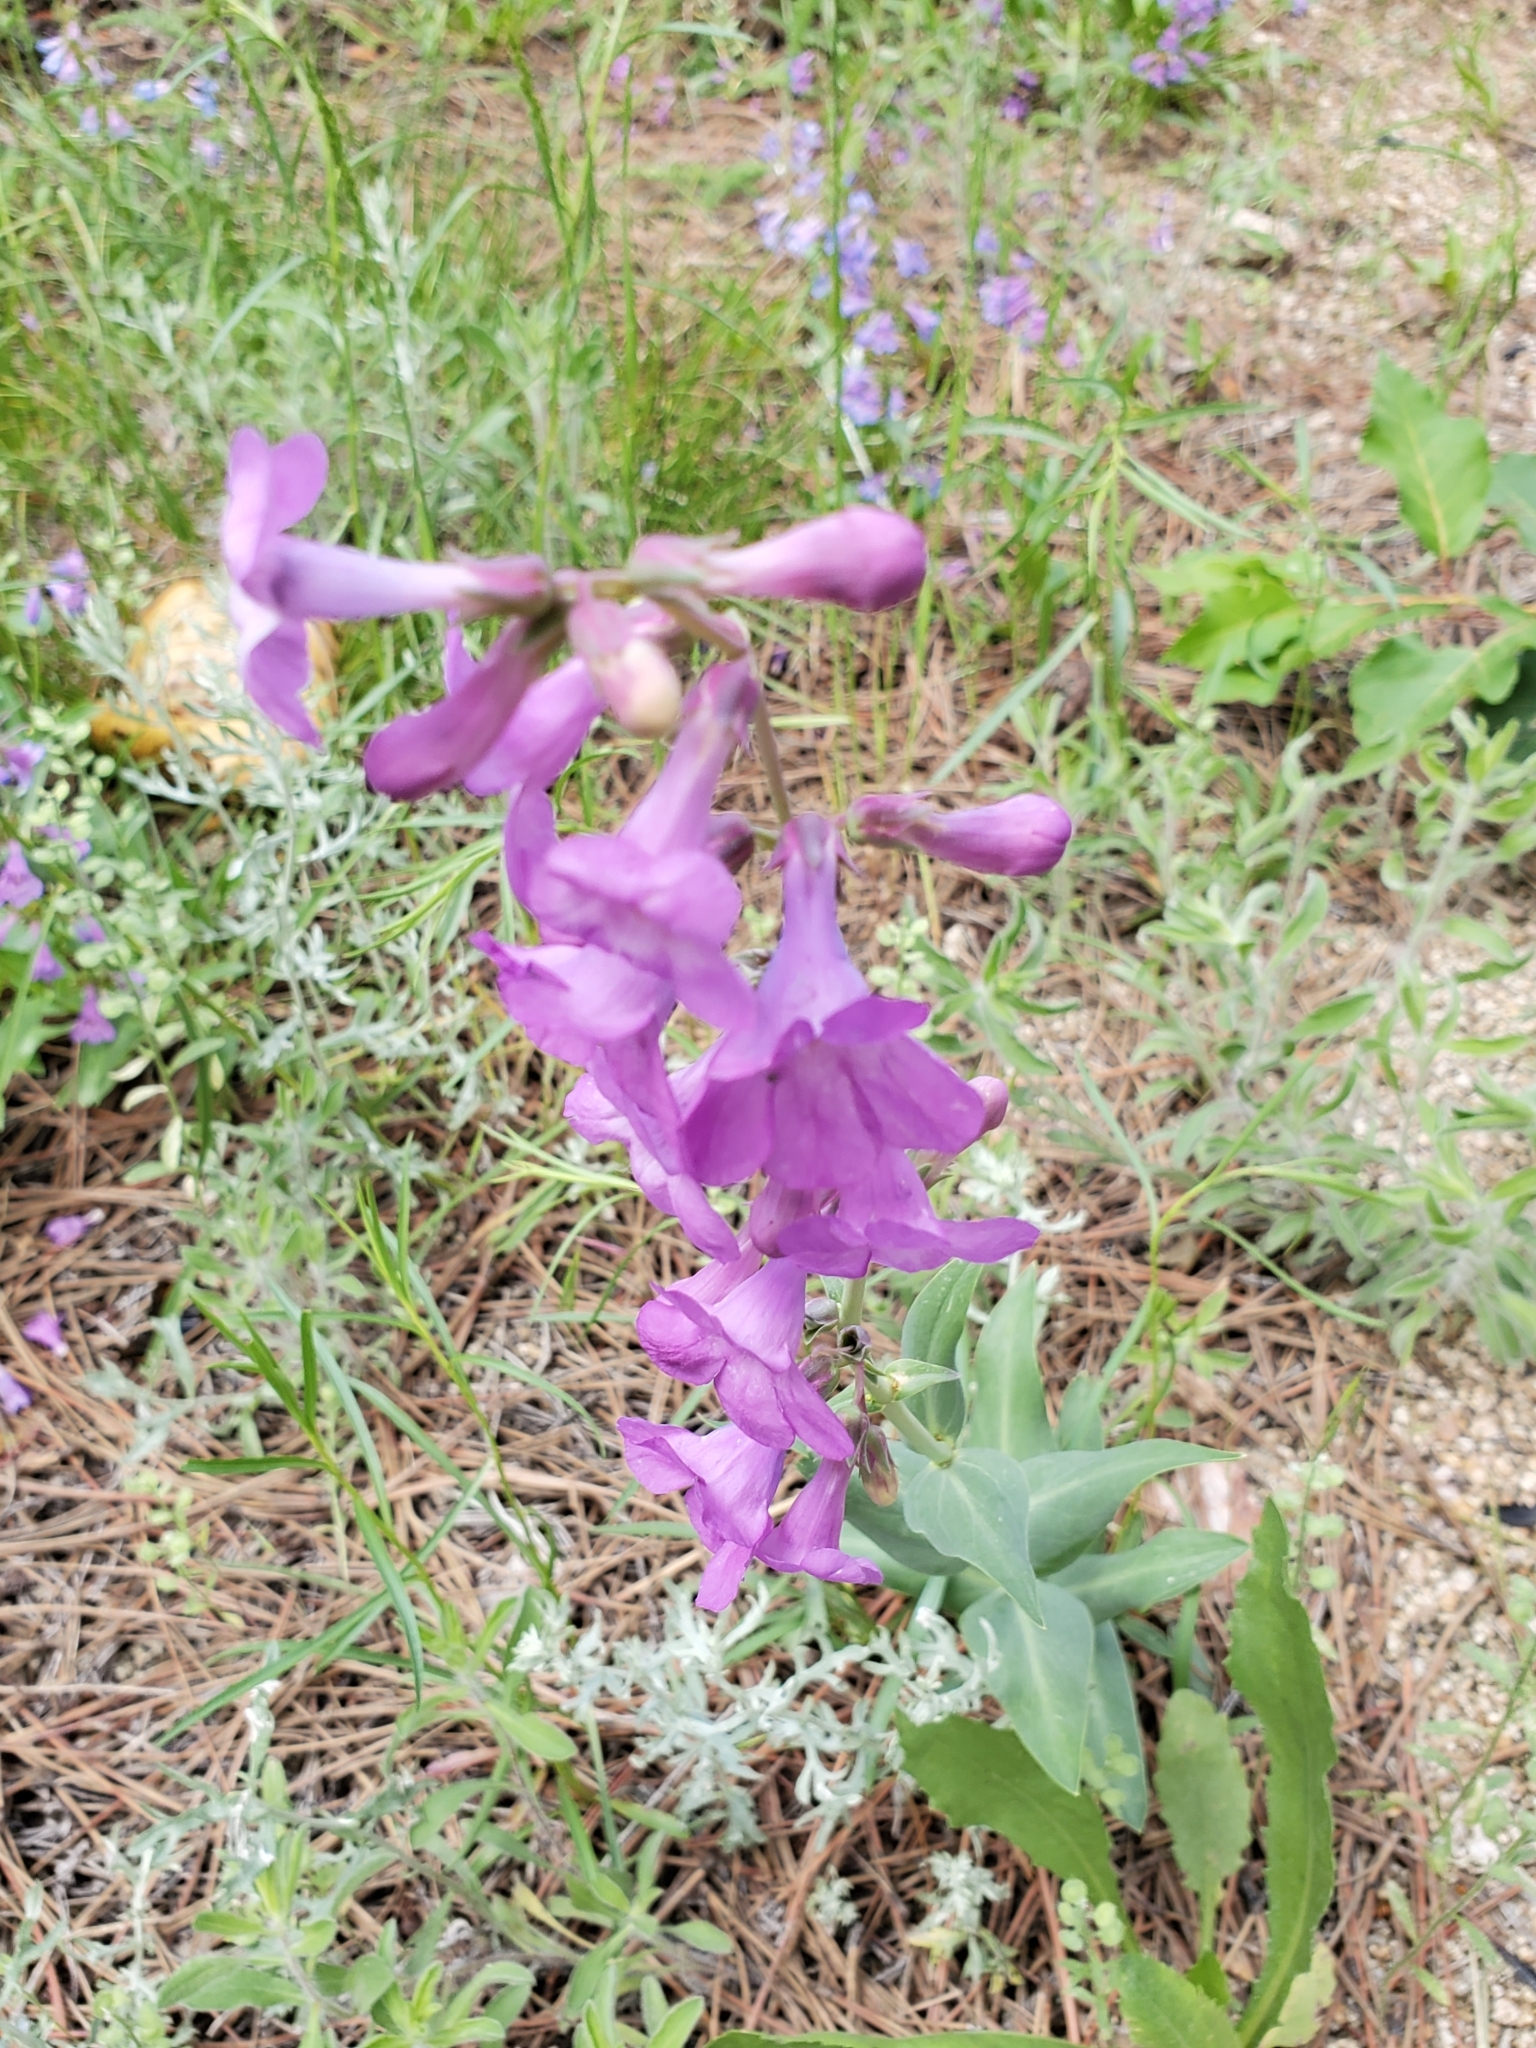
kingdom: Plantae
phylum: Tracheophyta
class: Magnoliopsida
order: Lamiales
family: Plantaginaceae
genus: Penstemon
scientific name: Penstemon secundiflorus
